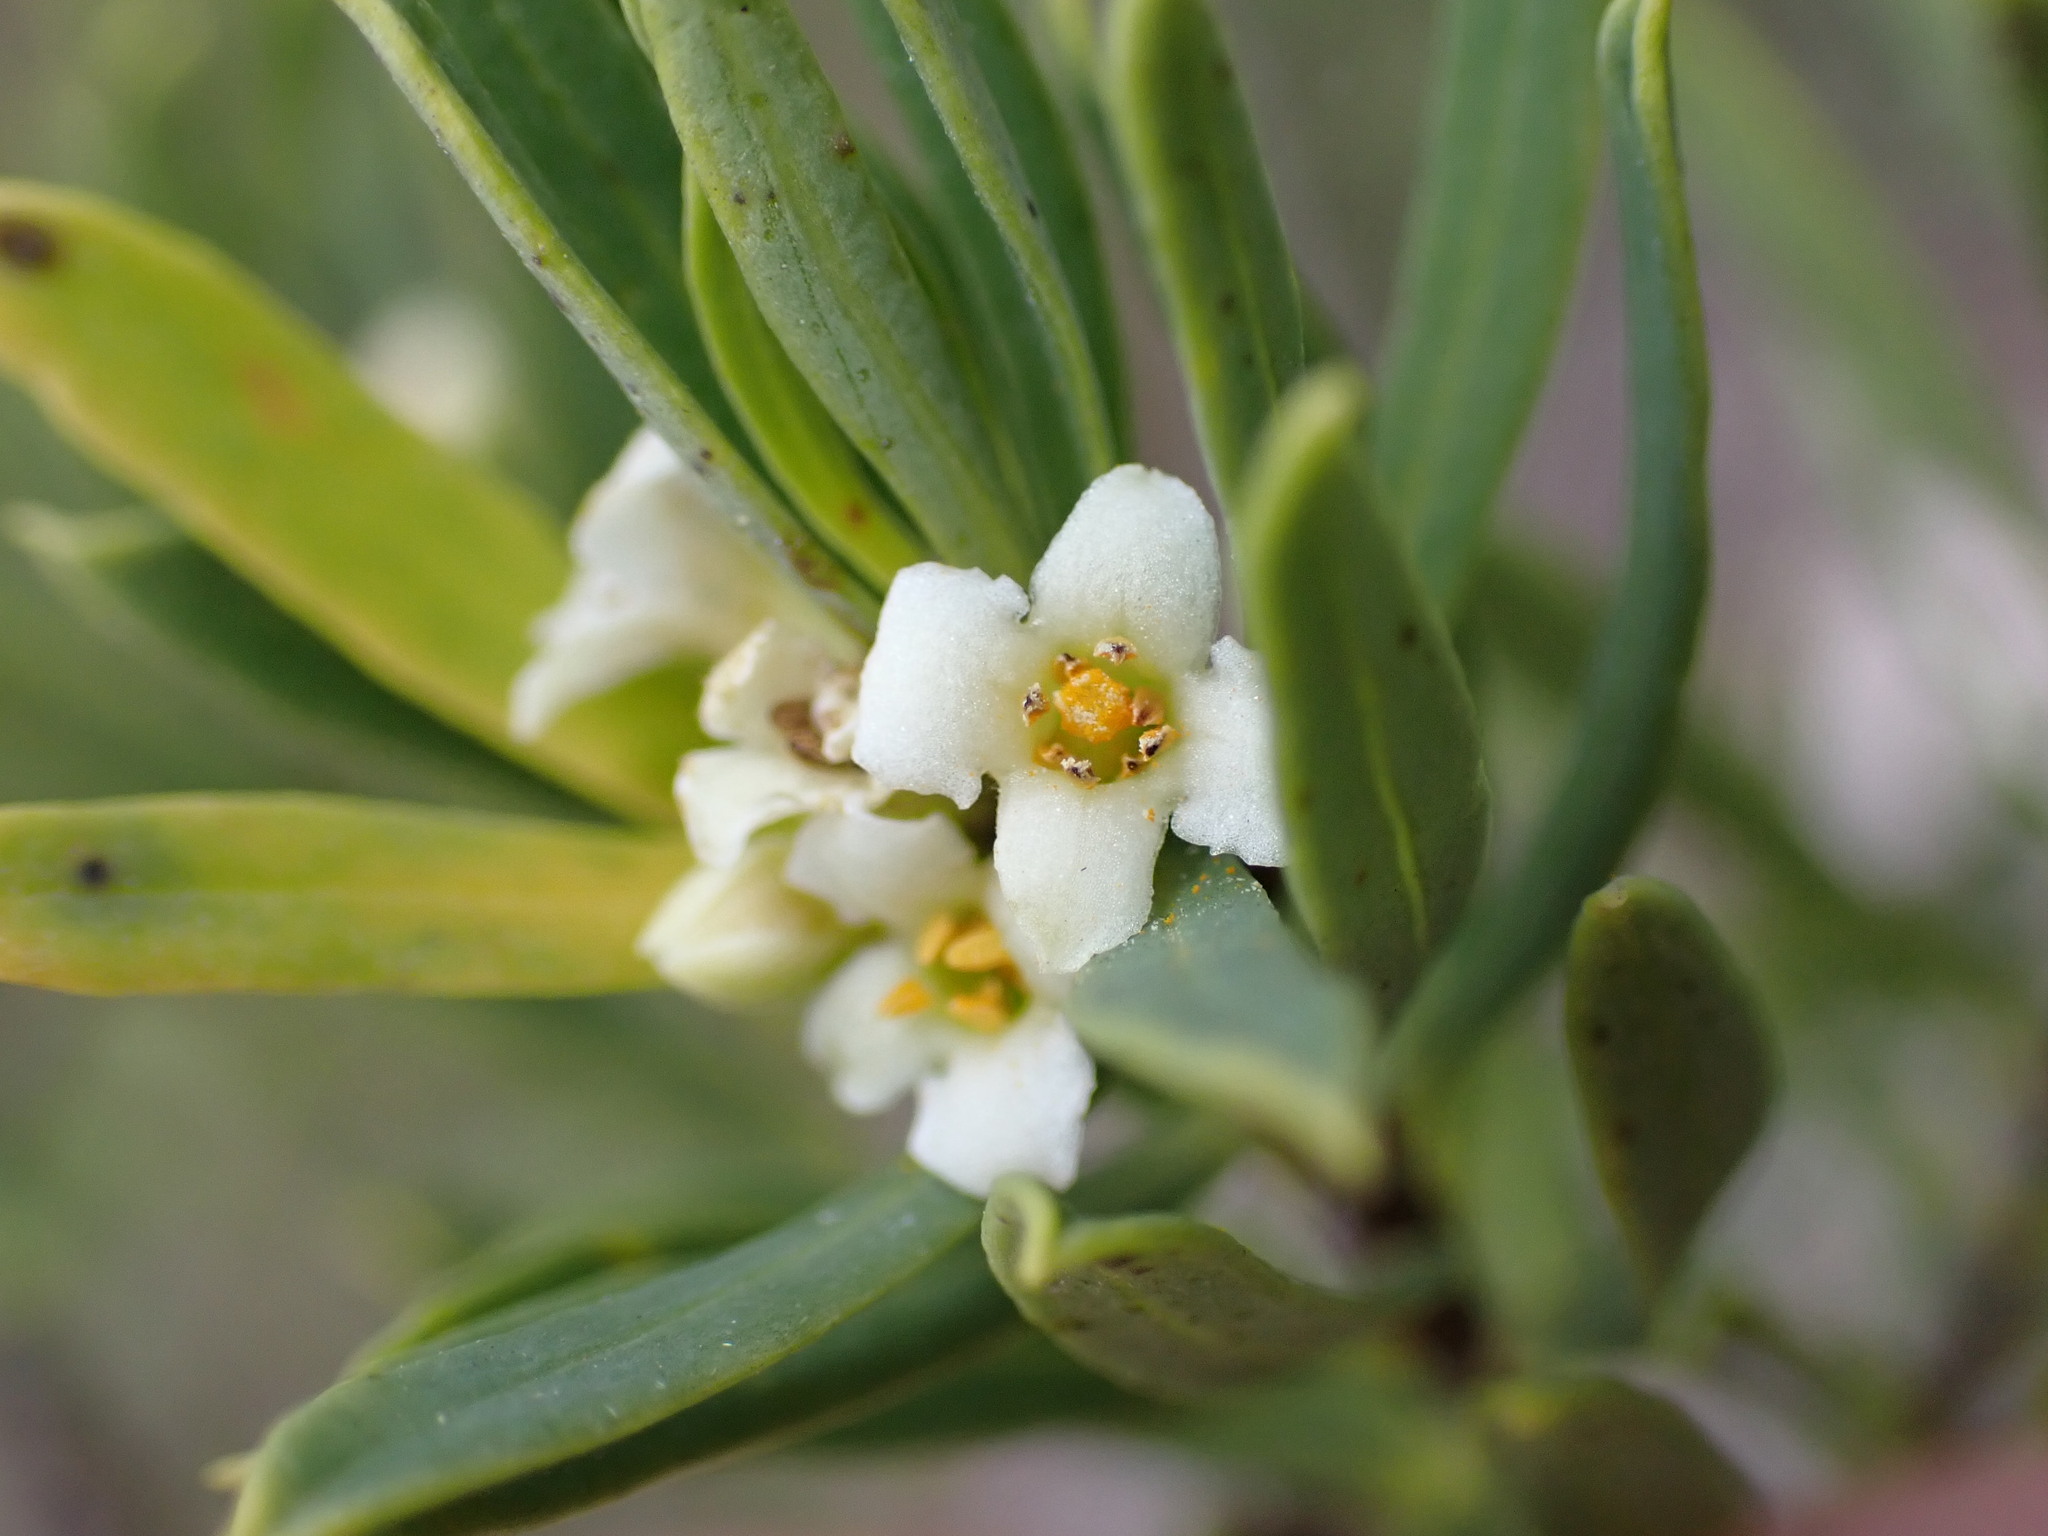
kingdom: Plantae
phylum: Tracheophyta
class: Magnoliopsida
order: Malvales
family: Thymelaeaceae
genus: Daphne
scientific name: Daphne gnidium
